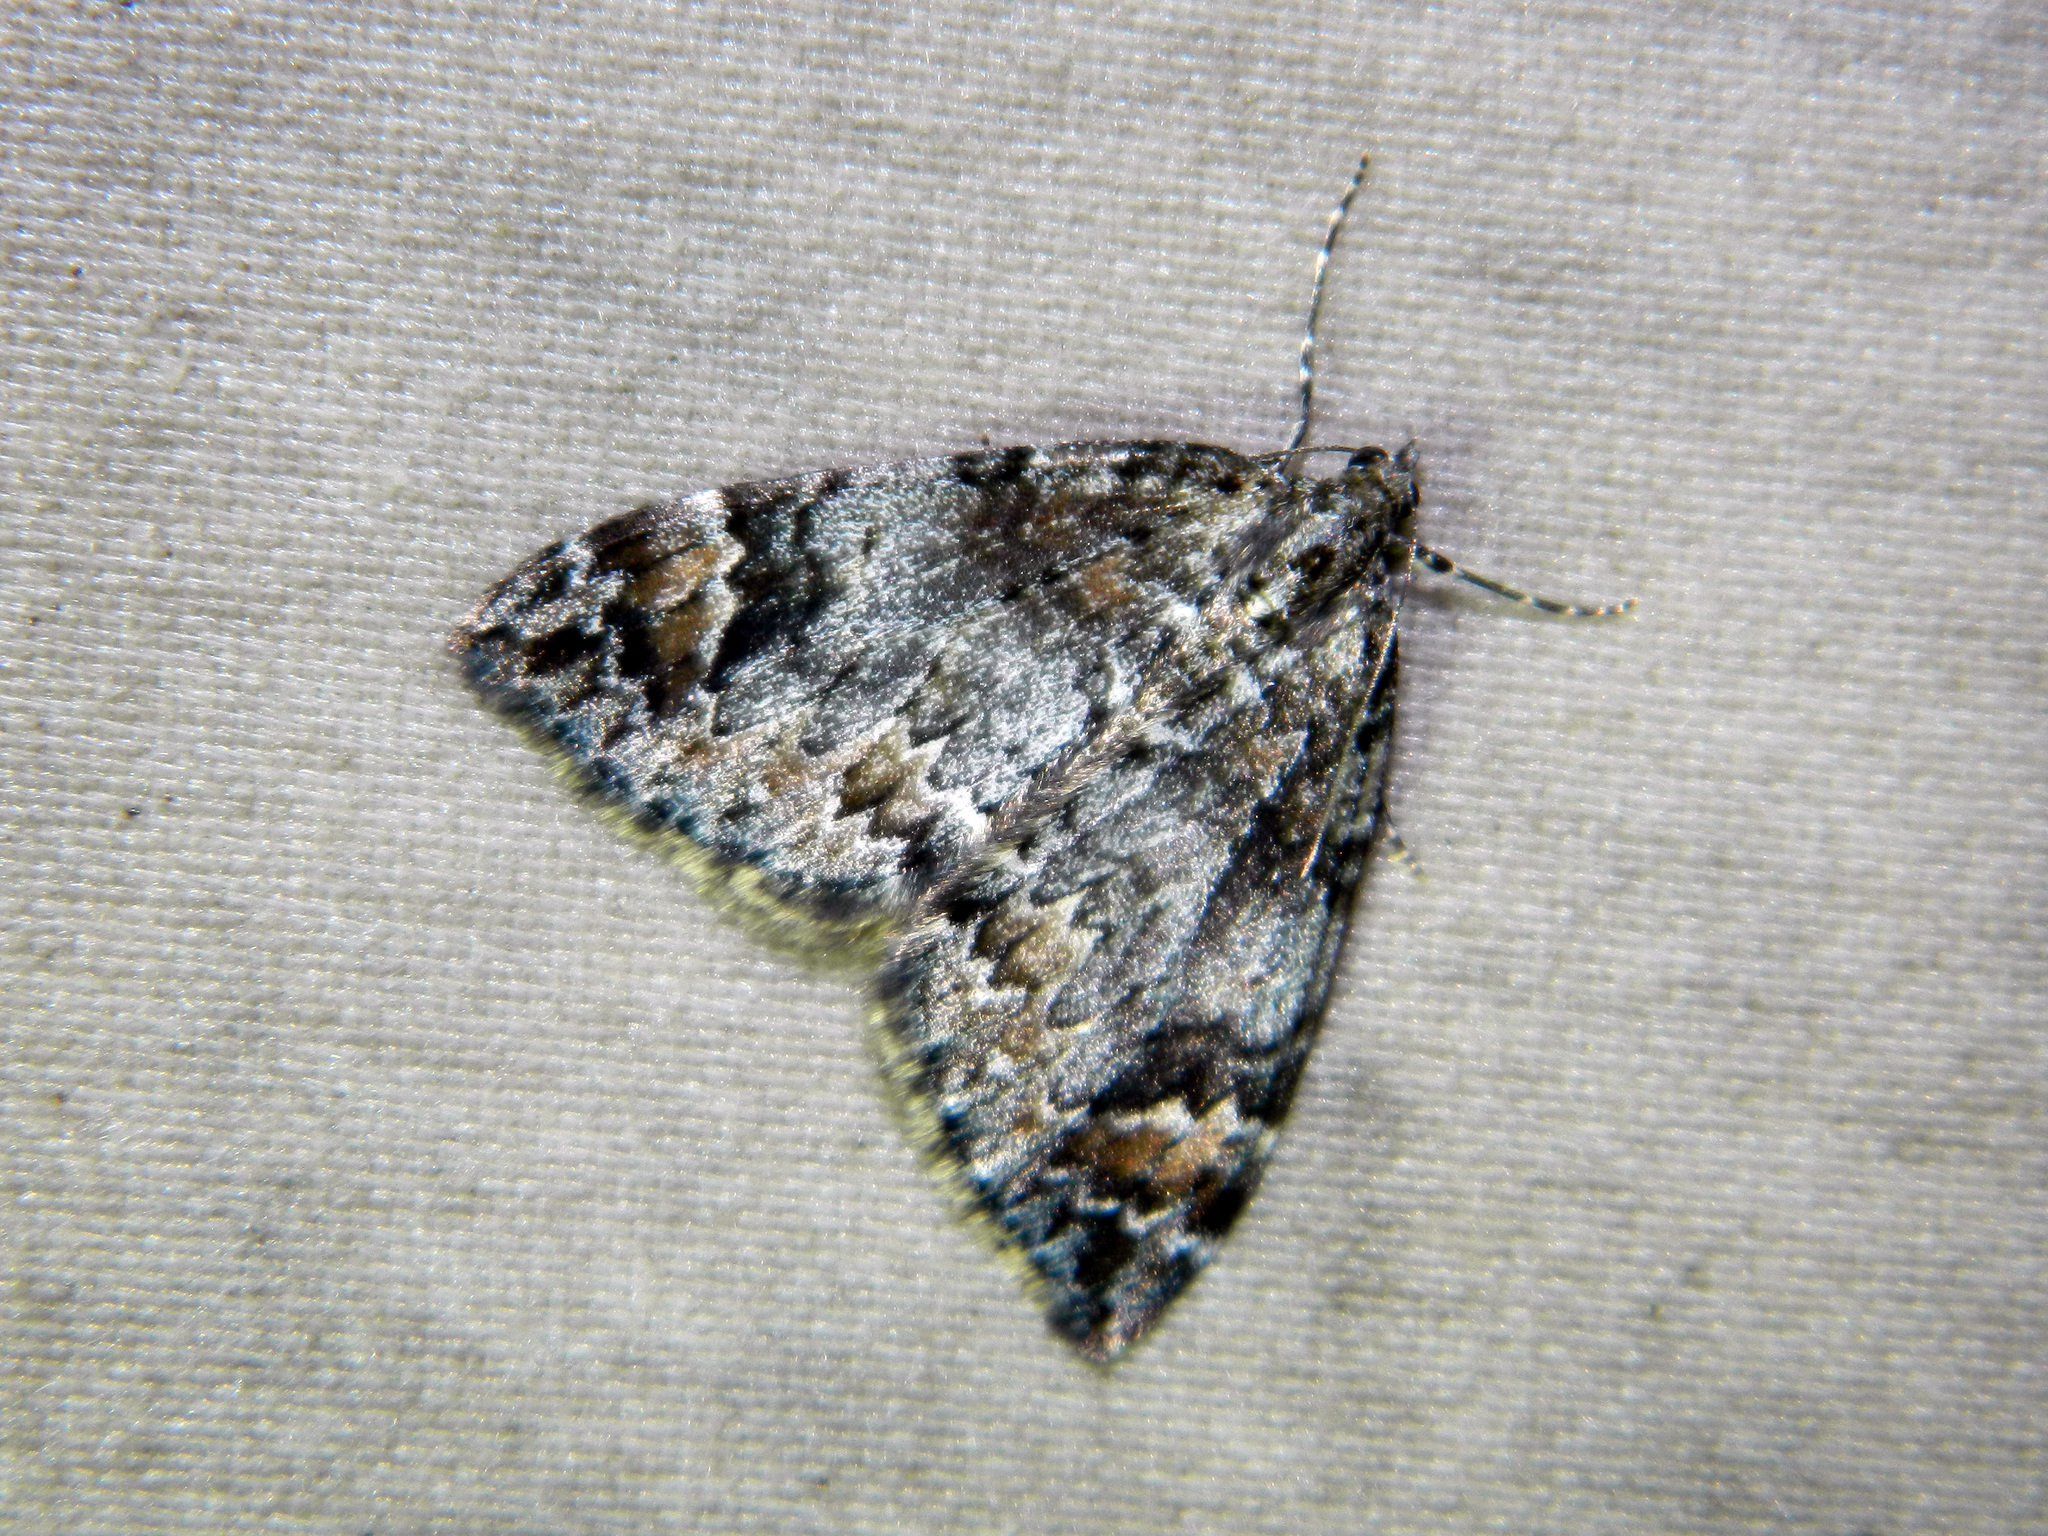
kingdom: Animalia
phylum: Arthropoda
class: Insecta
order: Lepidoptera
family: Geometridae
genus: Dysstroma
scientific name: Dysstroma citrata
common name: Dark marbled carpet
